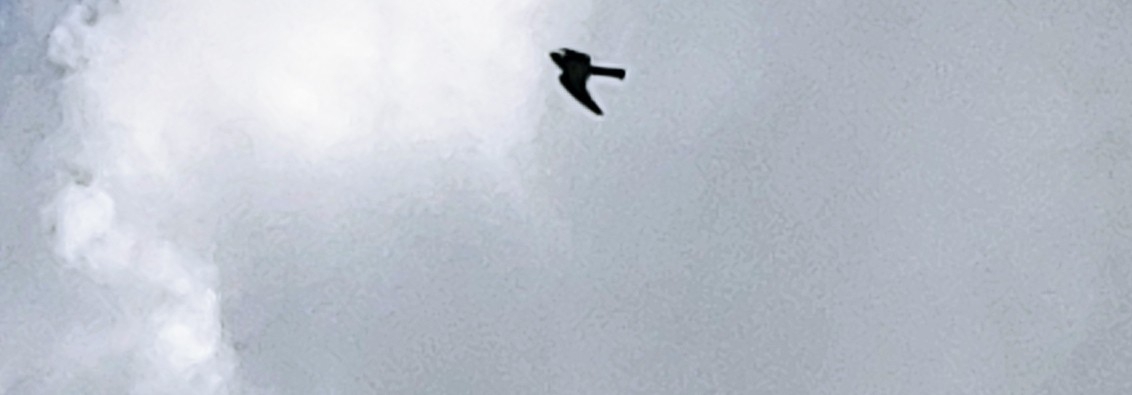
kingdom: Animalia
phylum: Chordata
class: Aves
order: Falconiformes
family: Falconidae
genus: Falco
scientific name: Falco sparverius
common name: American kestrel
